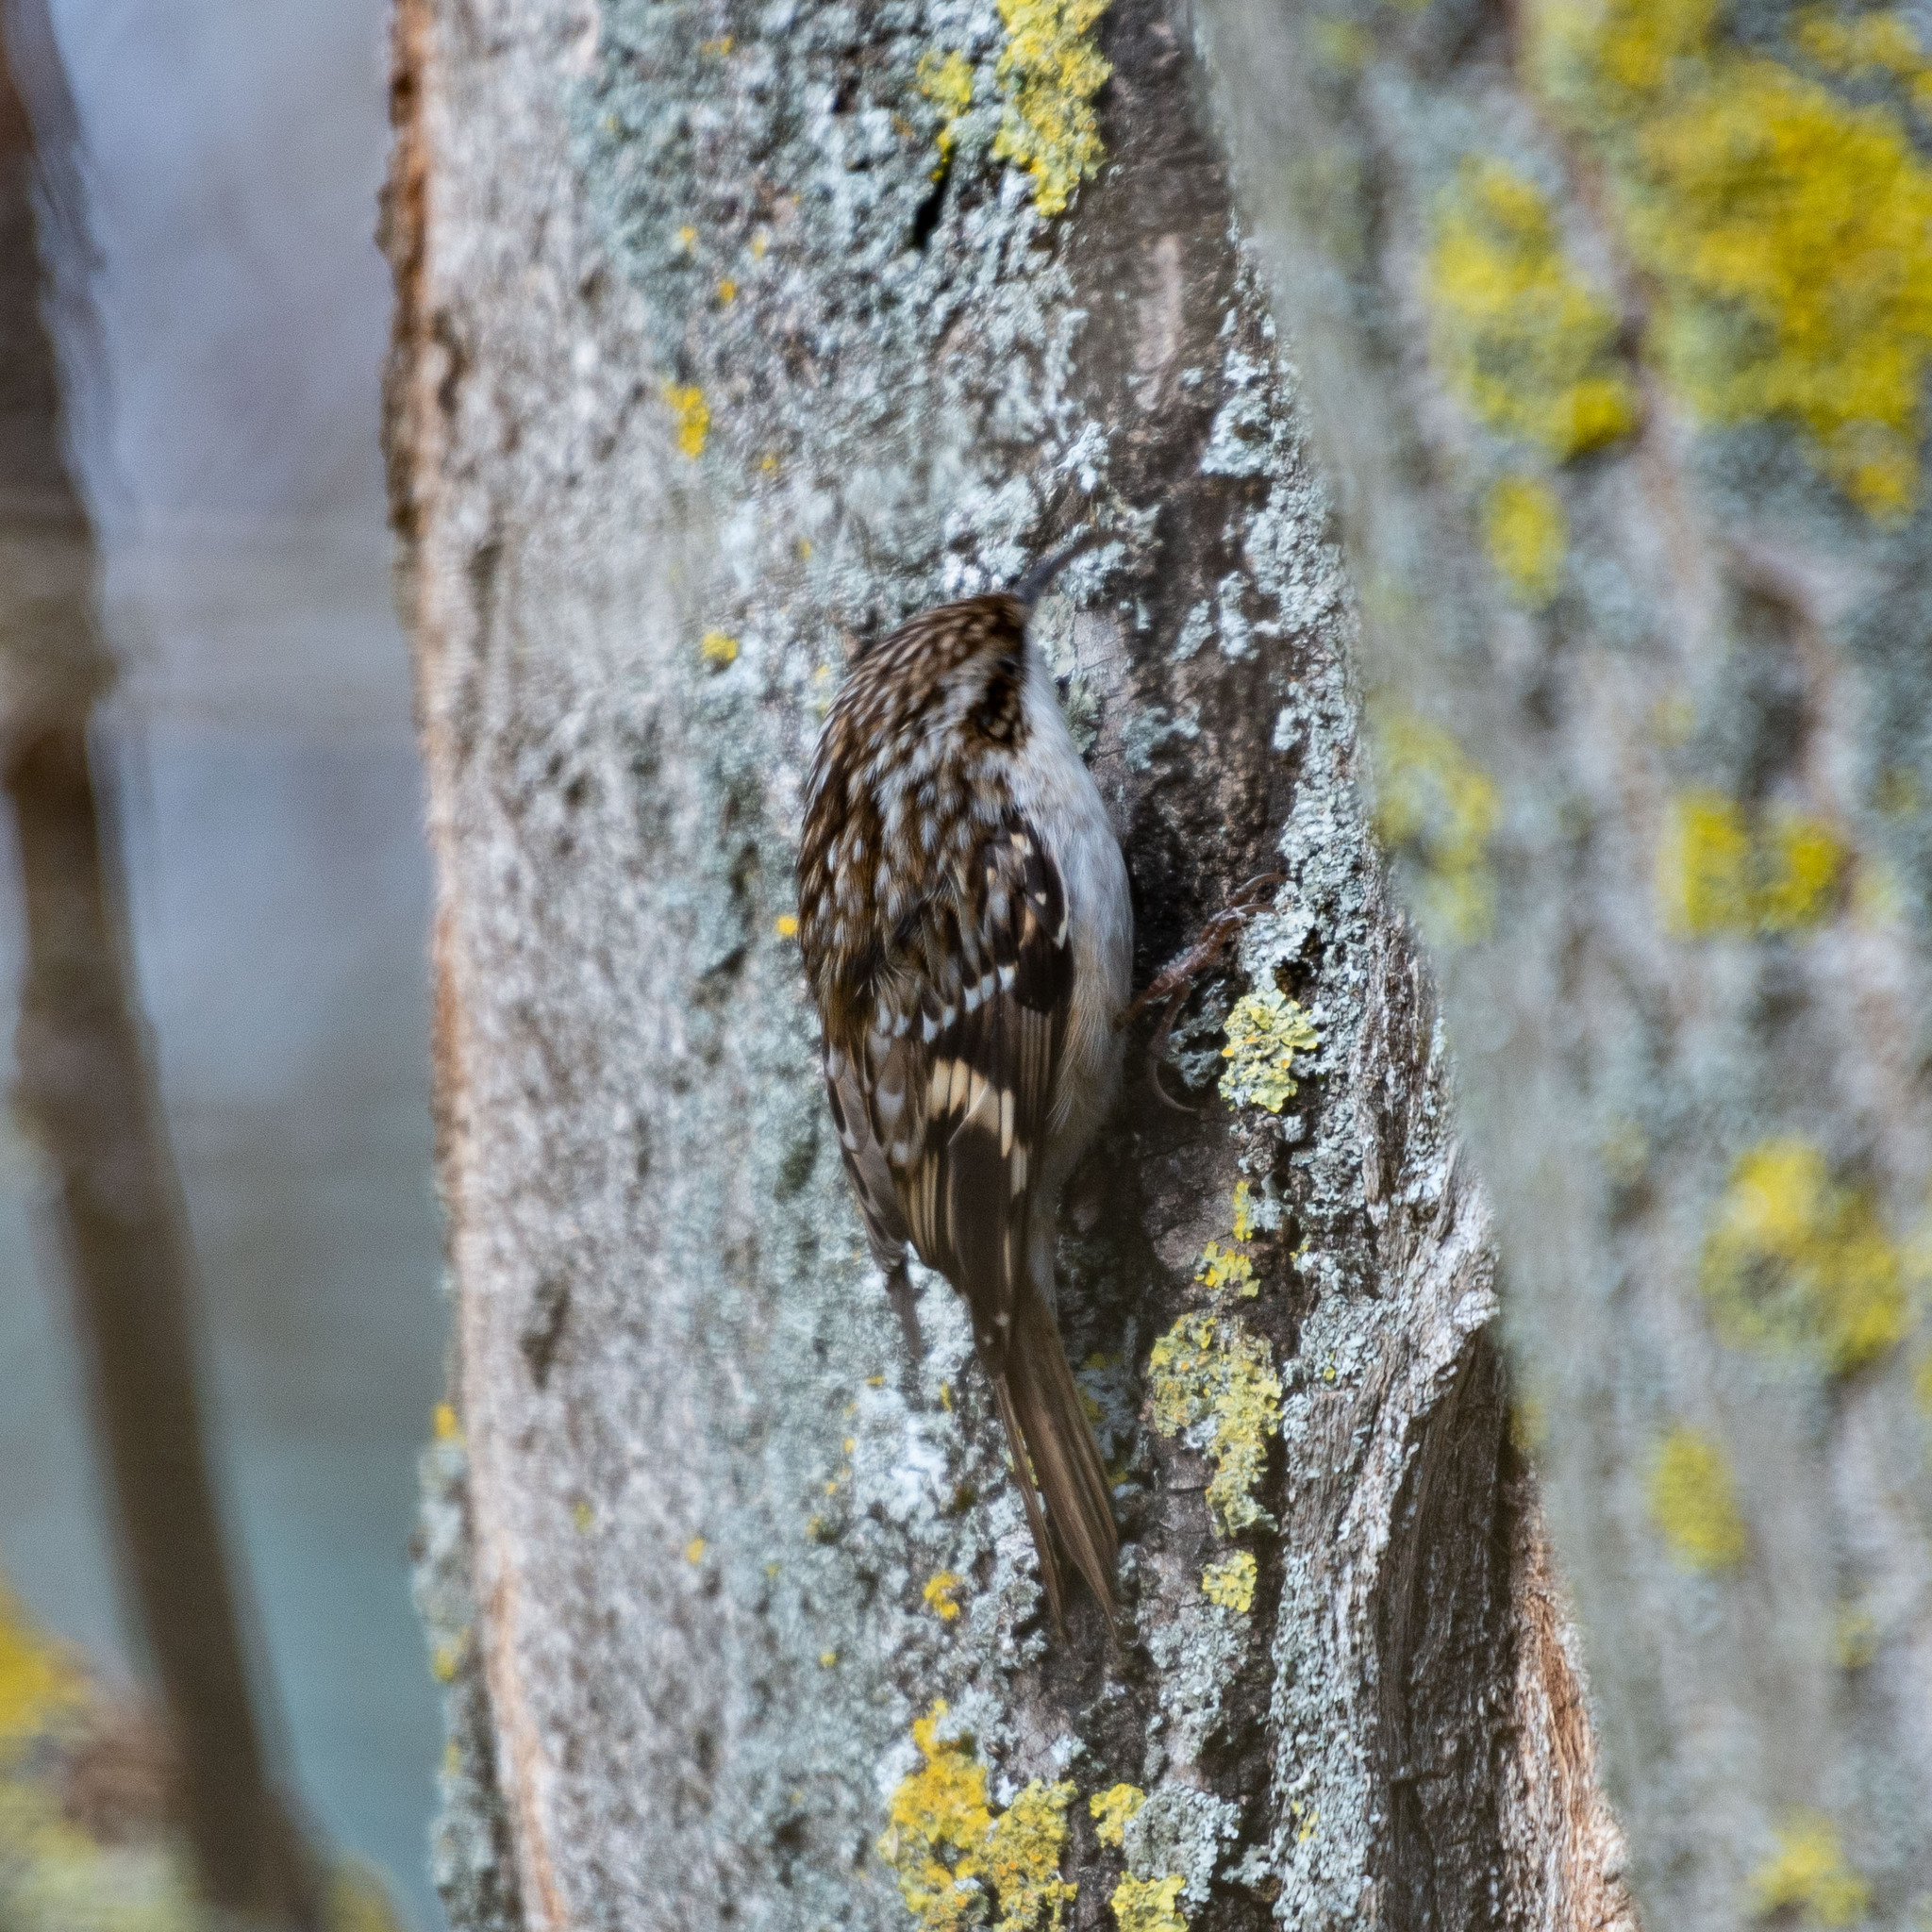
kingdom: Animalia
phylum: Chordata
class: Aves
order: Passeriformes
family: Certhiidae
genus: Certhia
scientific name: Certhia brachydactyla
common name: Short-toed treecreeper
